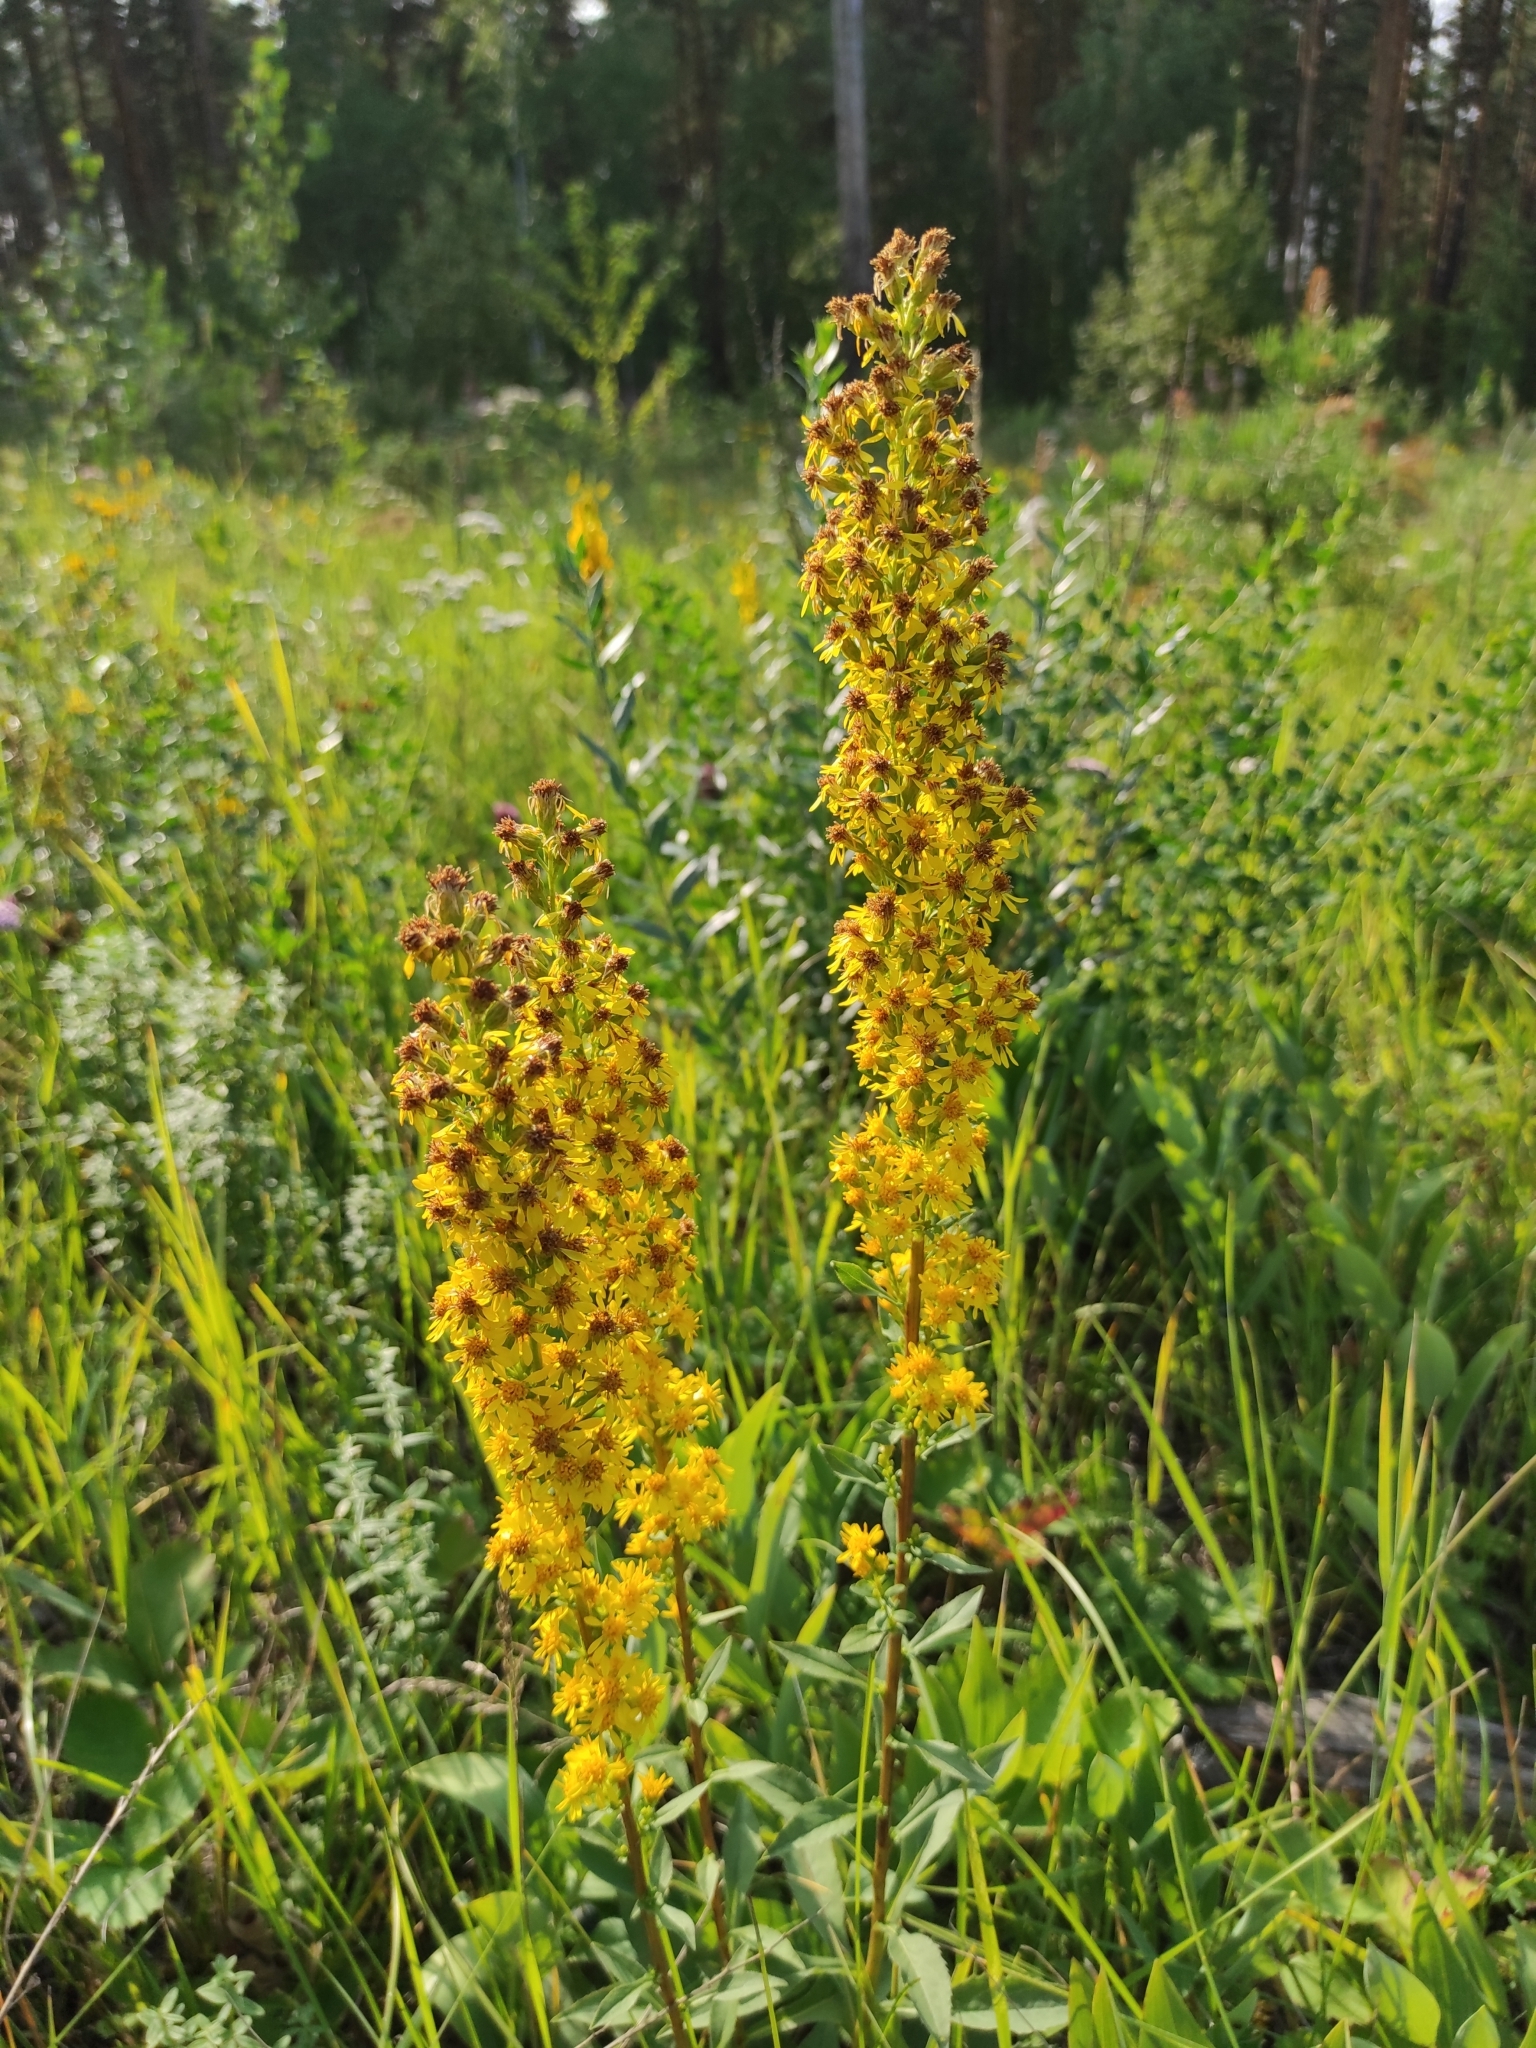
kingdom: Plantae
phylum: Tracheophyta
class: Magnoliopsida
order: Asterales
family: Asteraceae
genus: Solidago
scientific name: Solidago virgaurea
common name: Goldenrod
